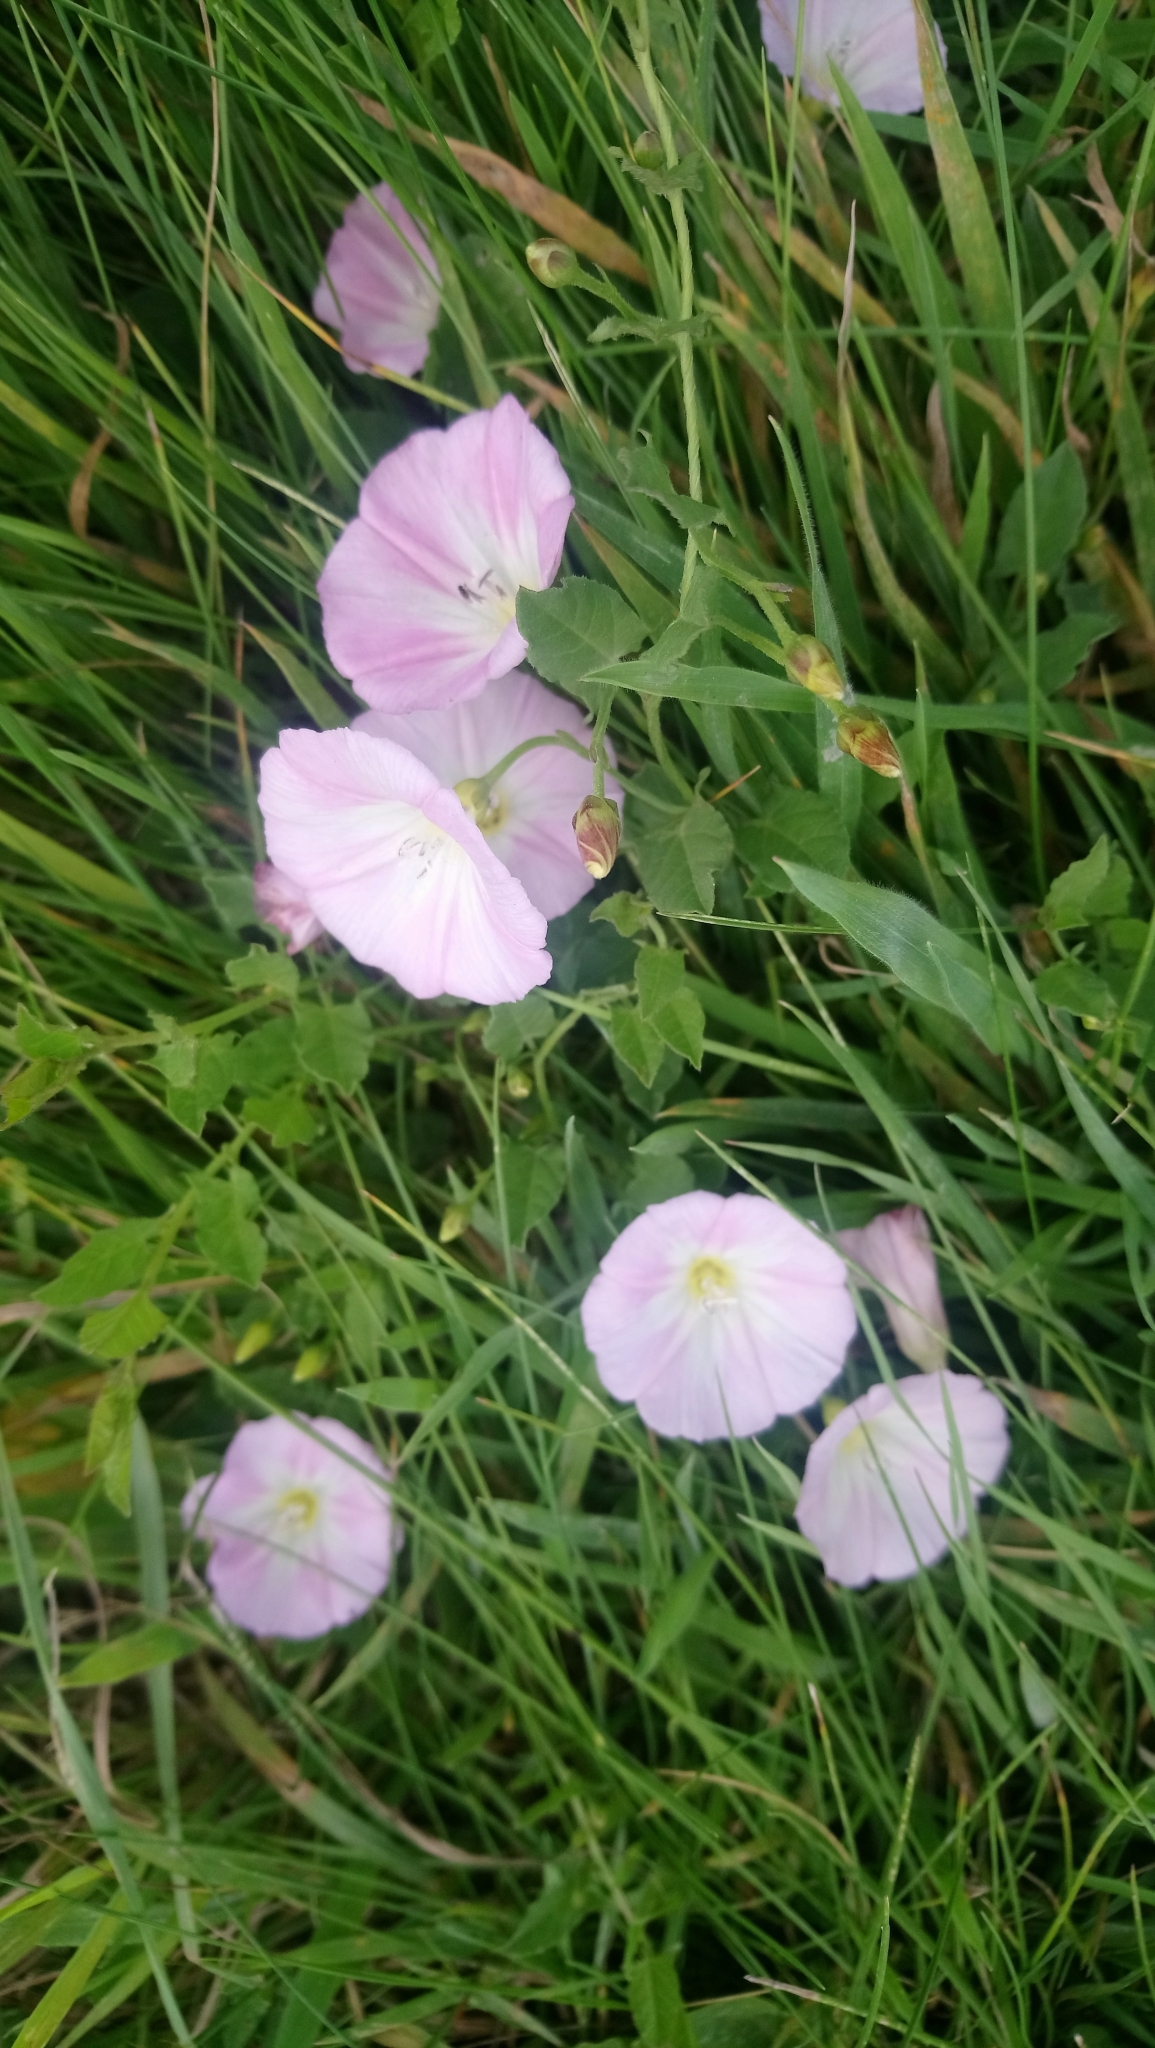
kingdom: Plantae
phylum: Tracheophyta
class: Magnoliopsida
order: Solanales
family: Convolvulaceae
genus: Convolvulus
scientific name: Convolvulus arvensis
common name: Field bindweed
